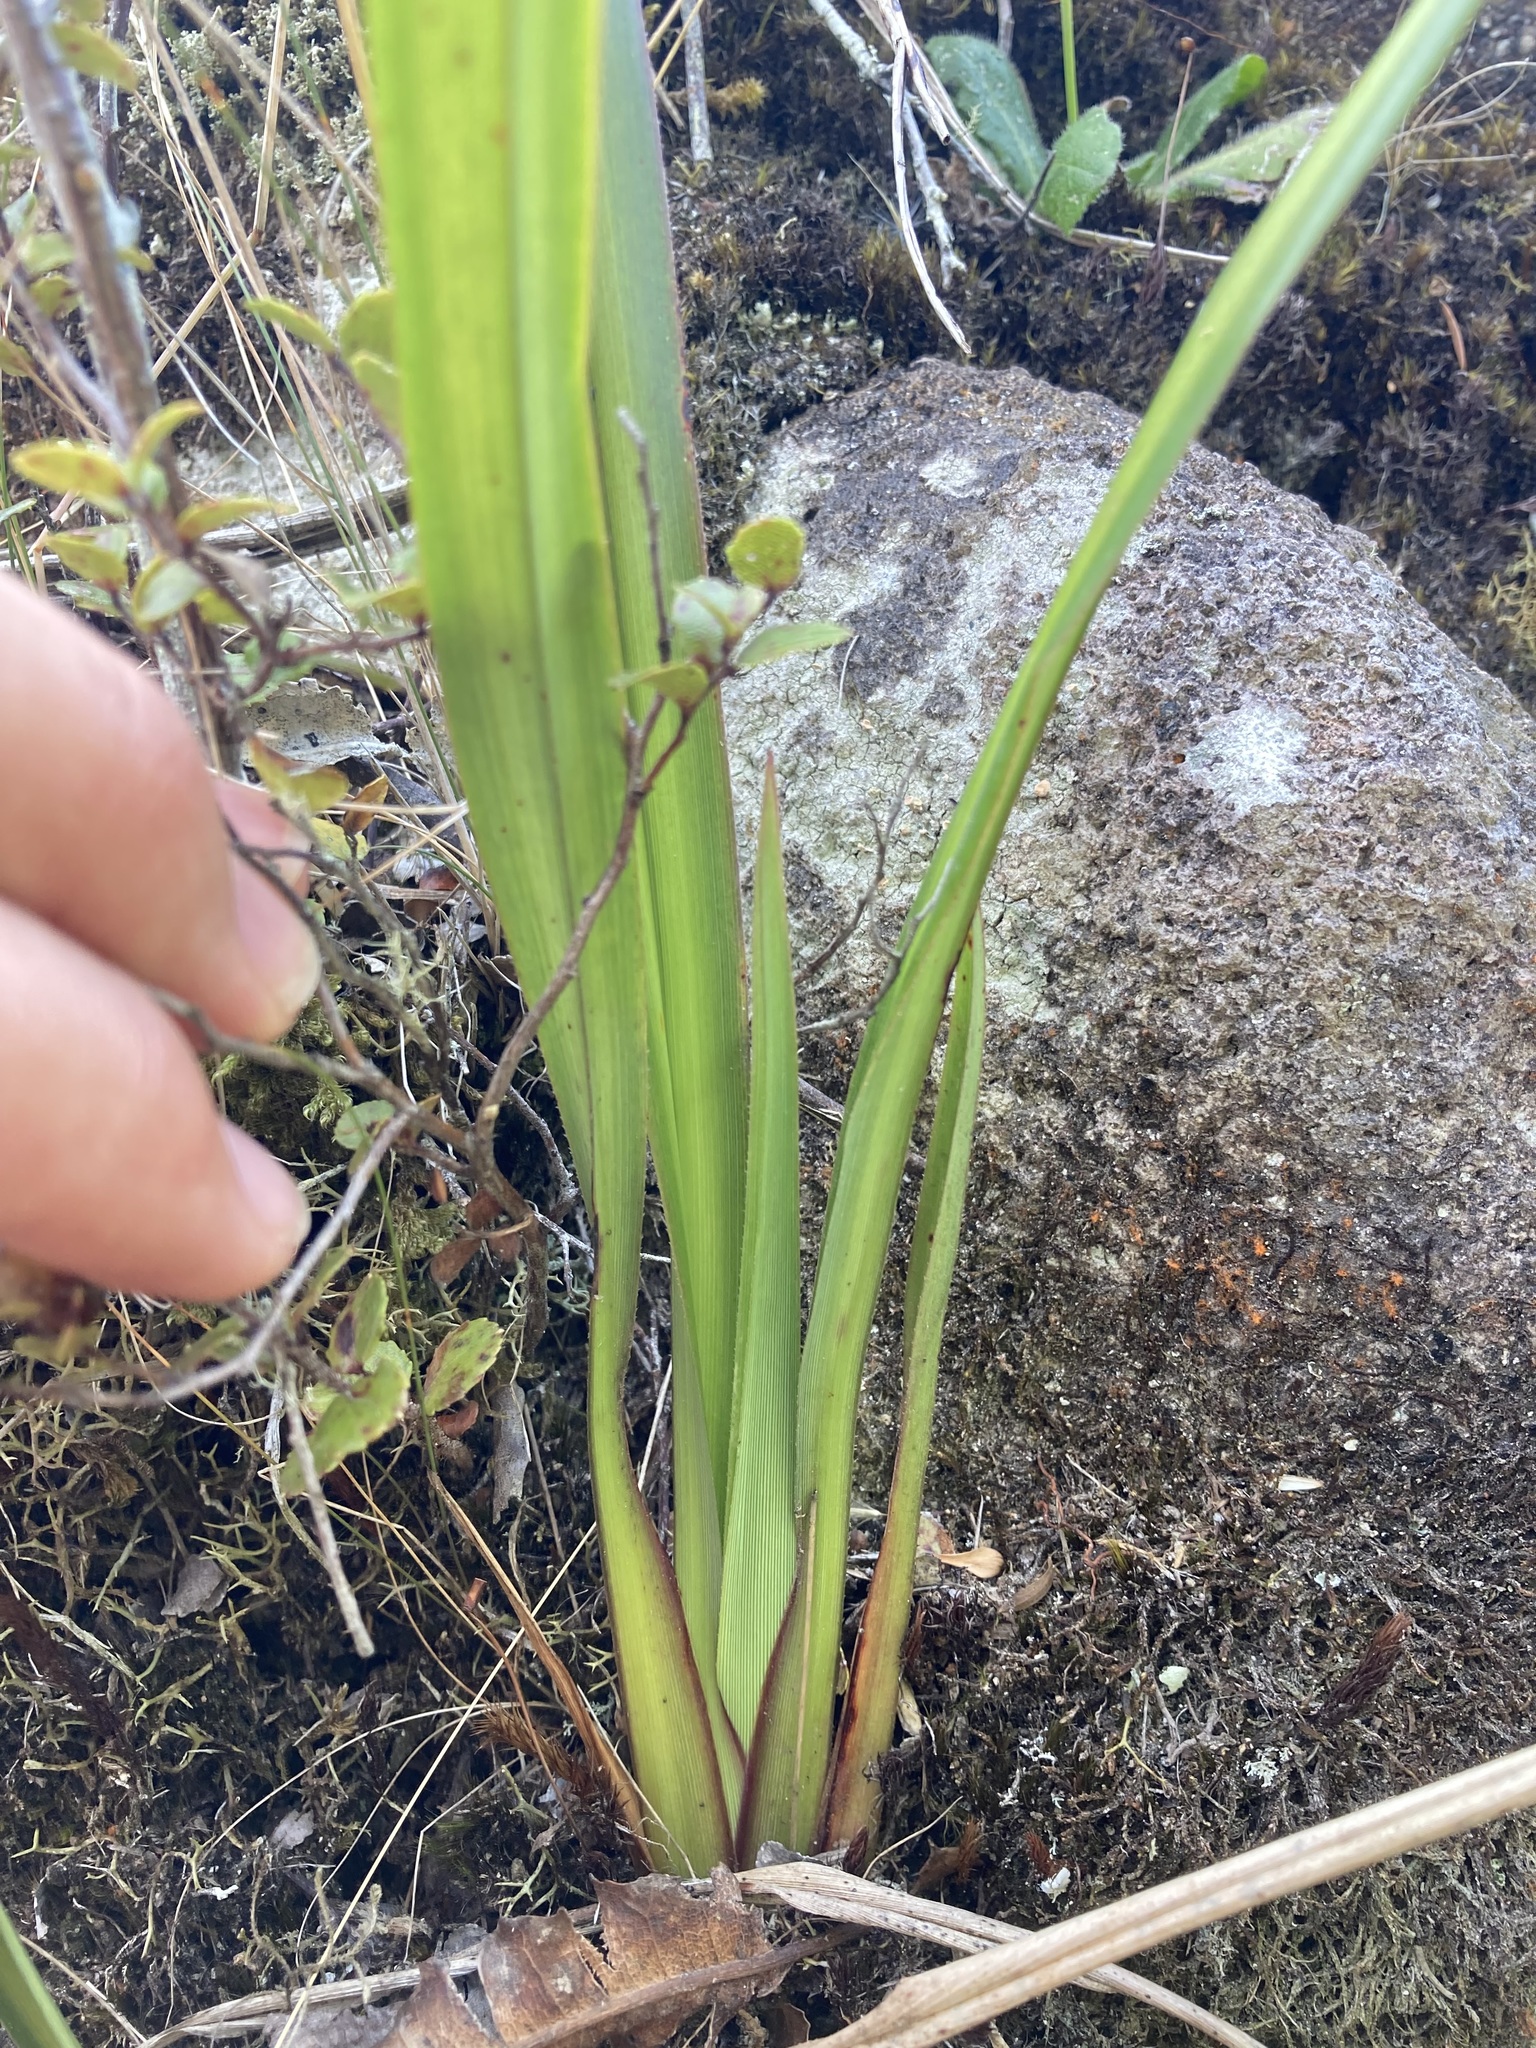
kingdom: Plantae
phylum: Tracheophyta
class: Liliopsida
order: Asparagales
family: Asphodelaceae
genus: Dianella
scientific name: Dianella nigra
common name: New zealand-blueberry
